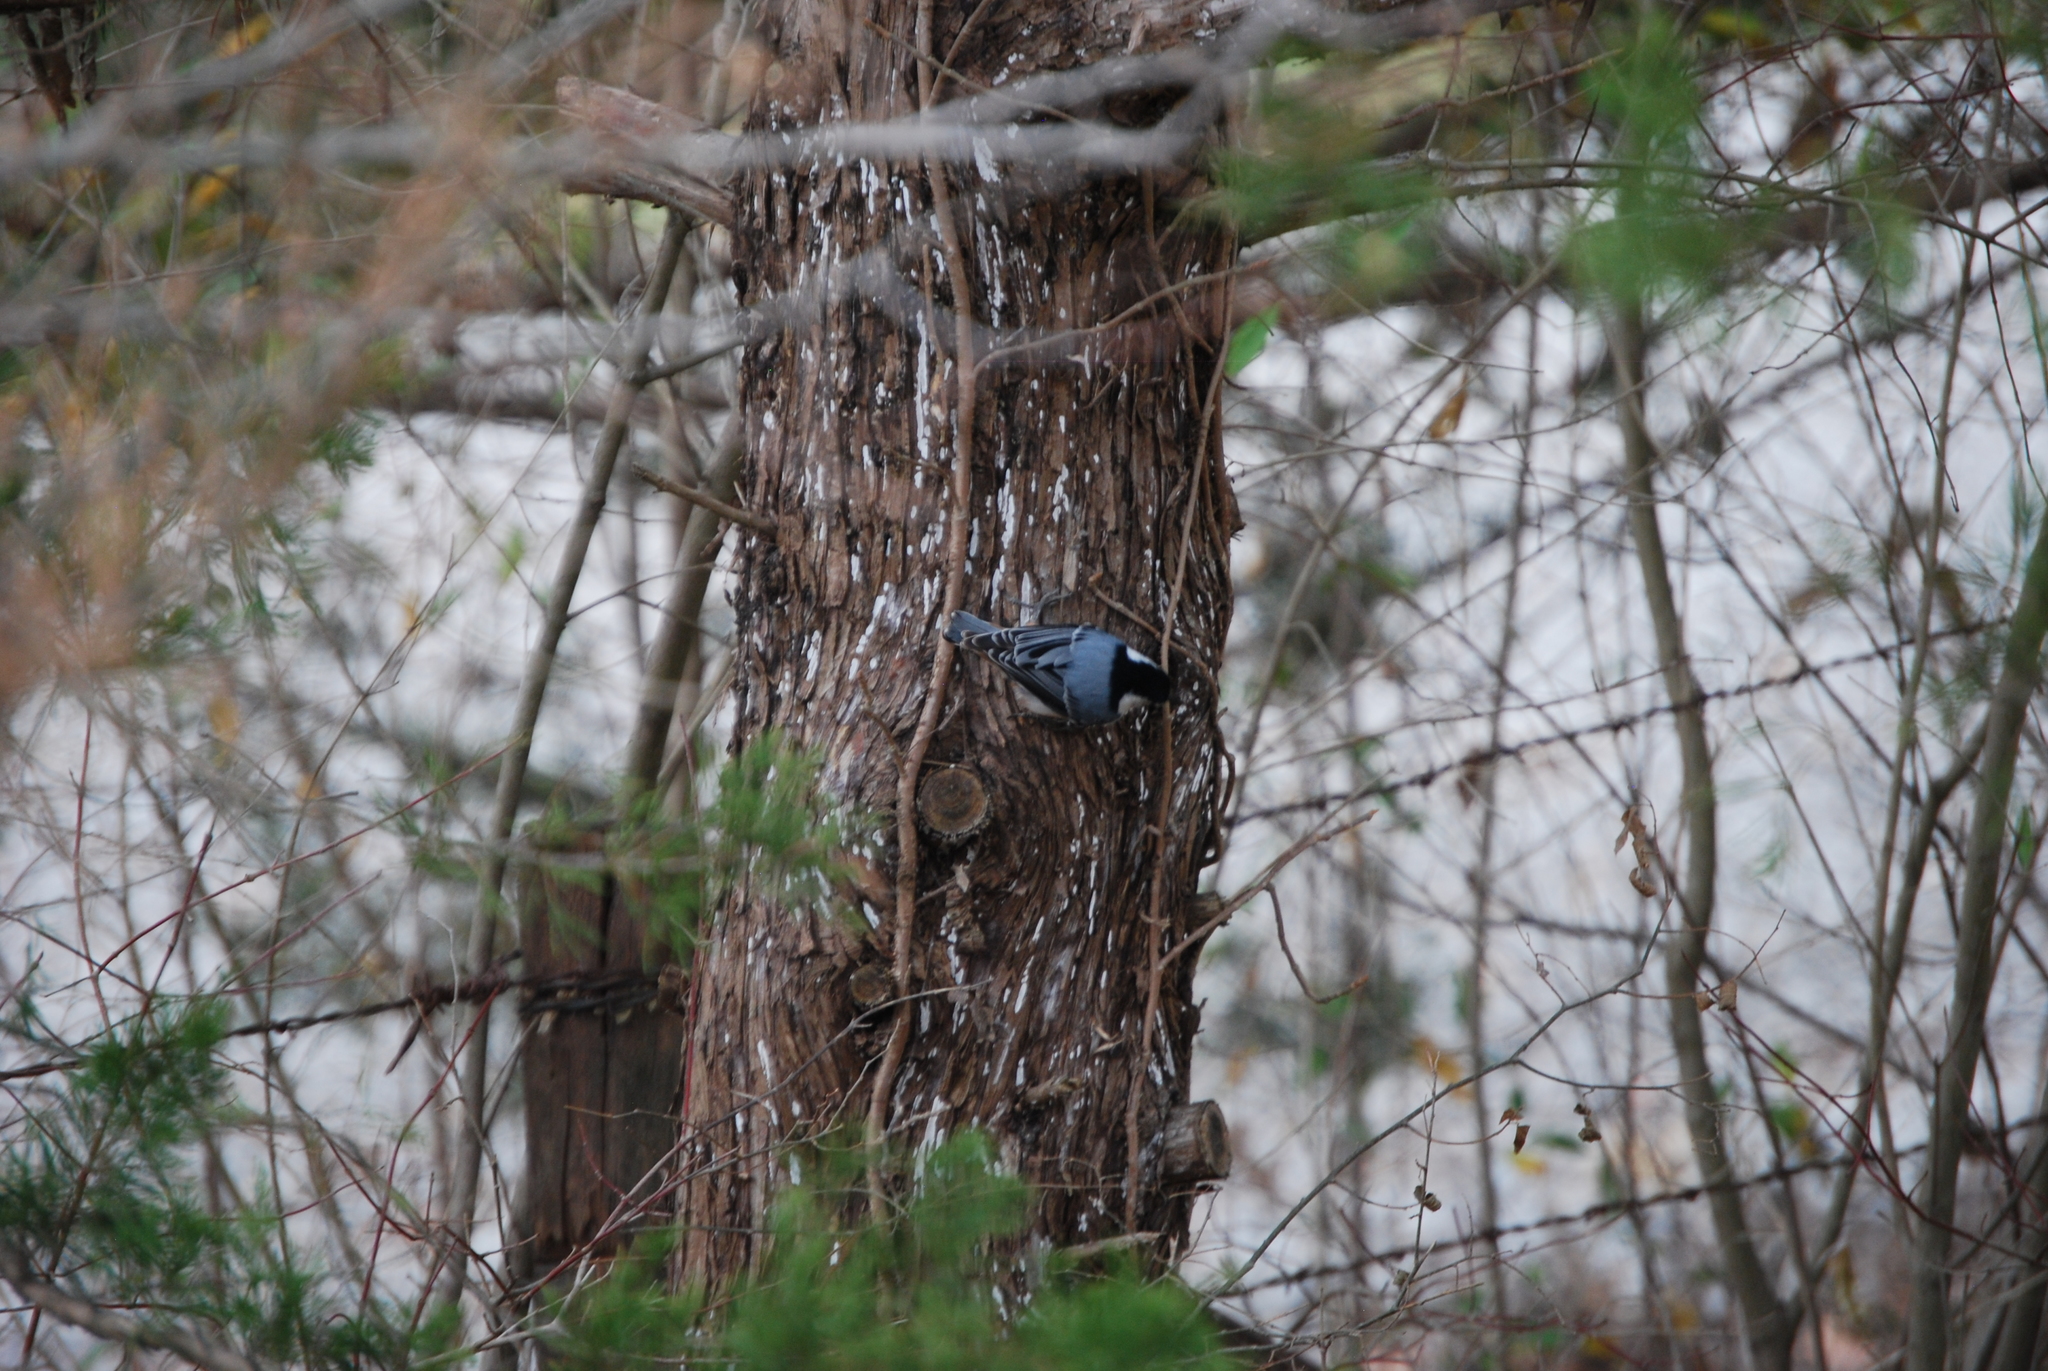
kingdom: Animalia
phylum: Chordata
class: Aves
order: Passeriformes
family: Sittidae
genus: Sitta
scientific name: Sitta carolinensis
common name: White-breasted nuthatch
